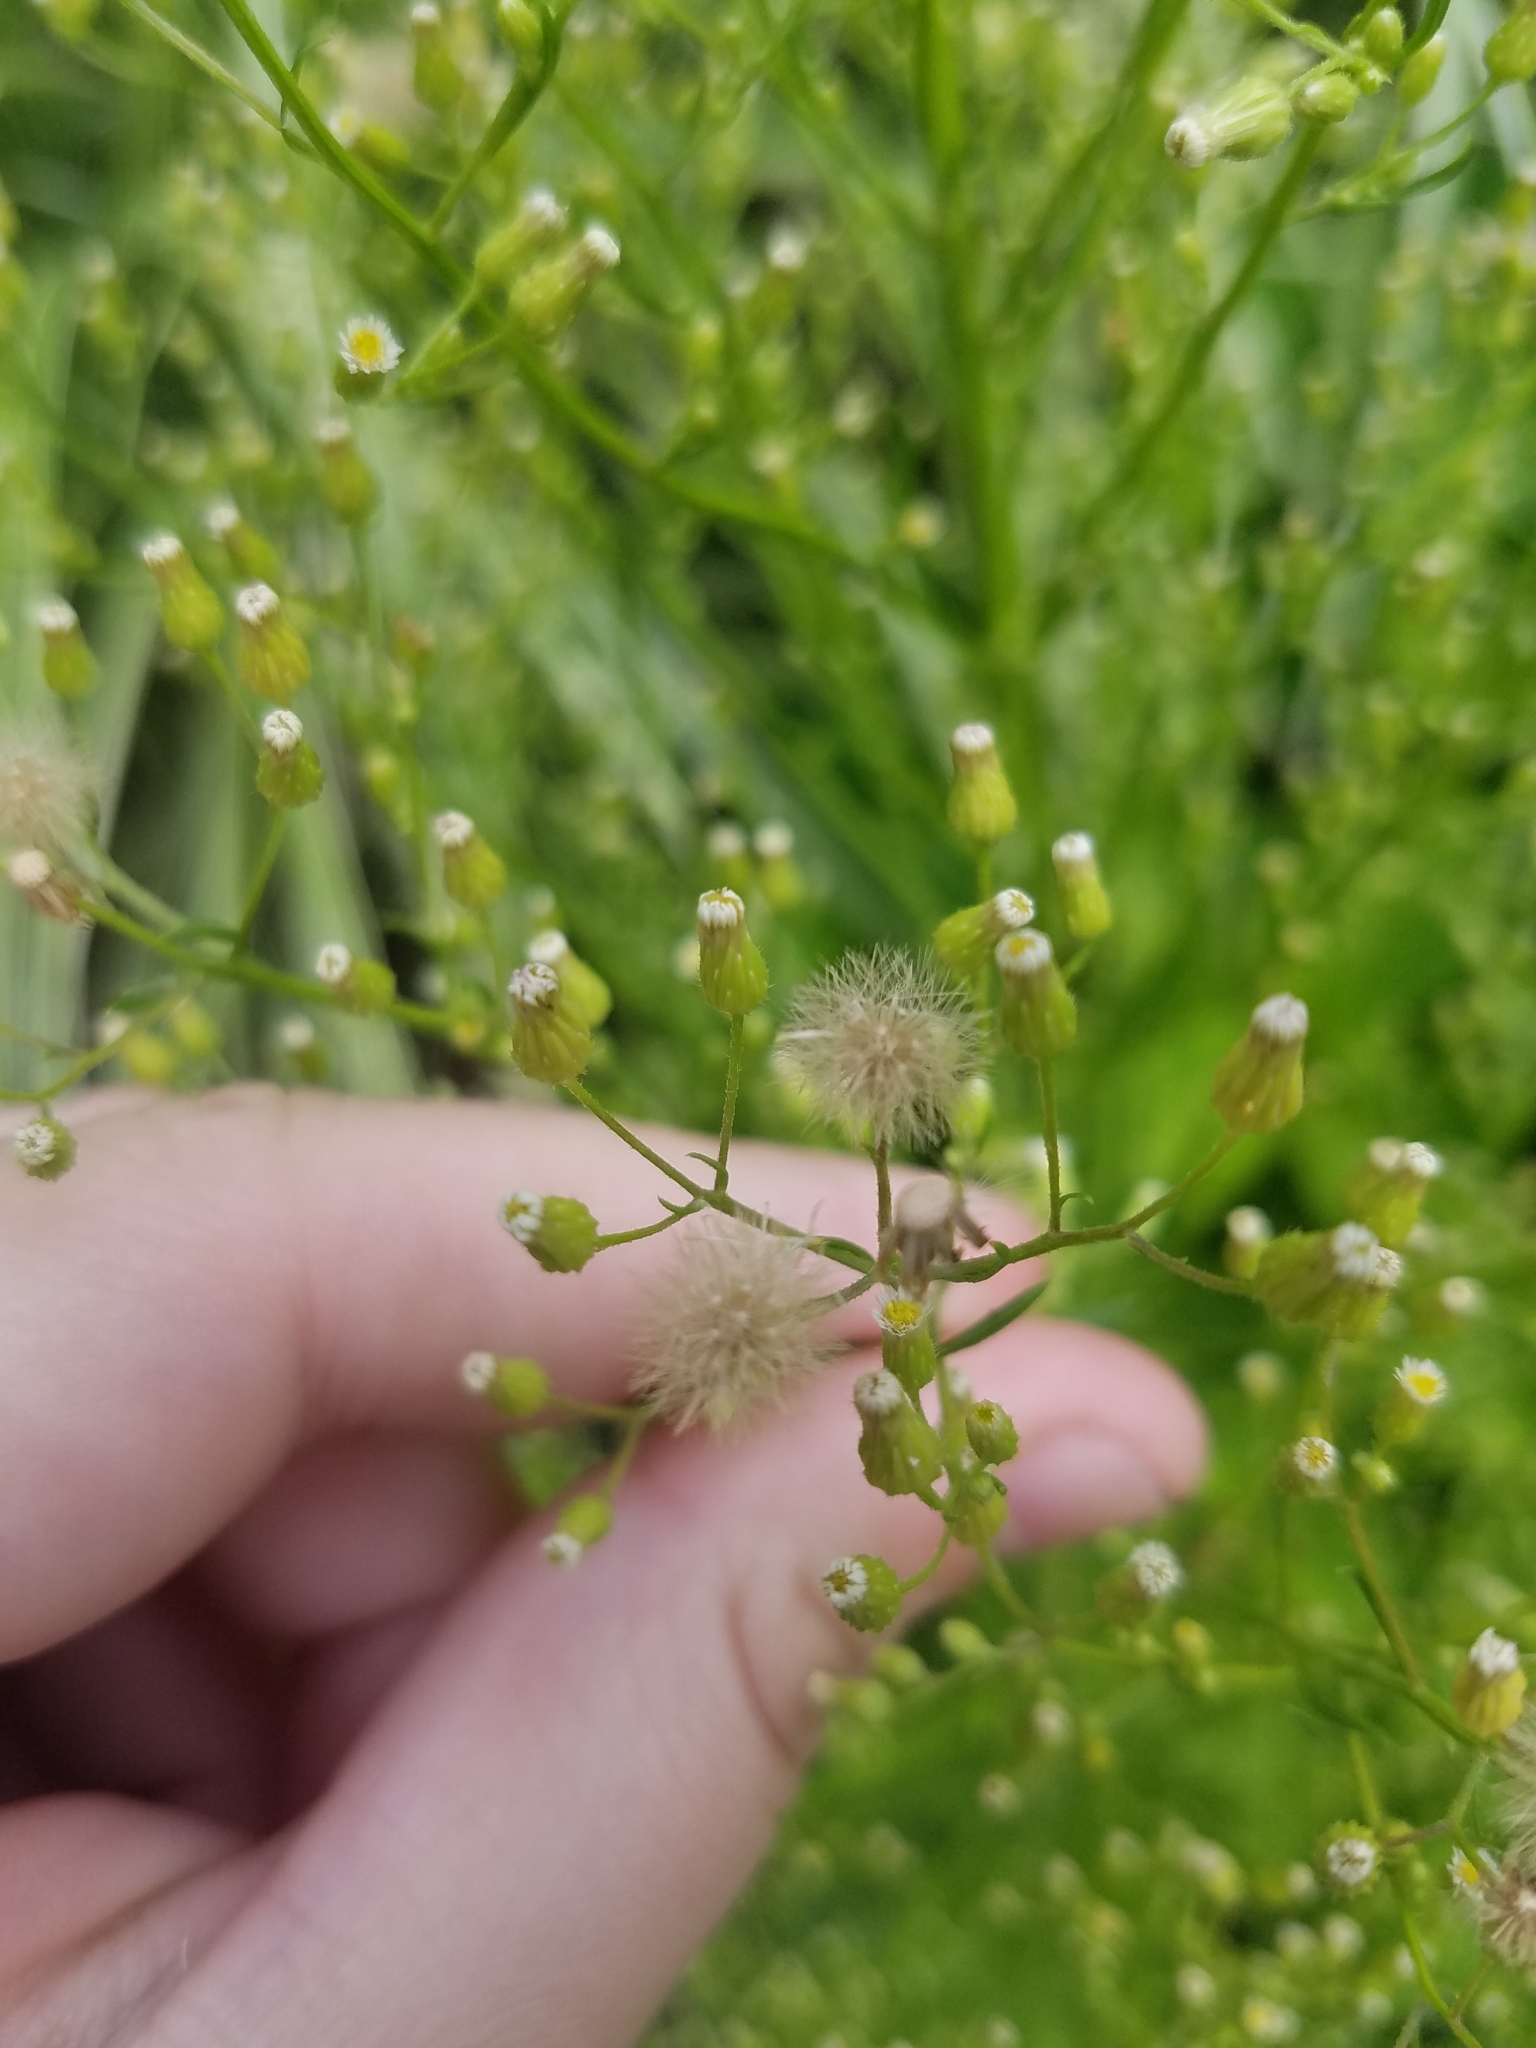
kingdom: Plantae
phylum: Tracheophyta
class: Magnoliopsida
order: Asterales
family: Asteraceae
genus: Erigeron
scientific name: Erigeron canadensis
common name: Canadian fleabane
